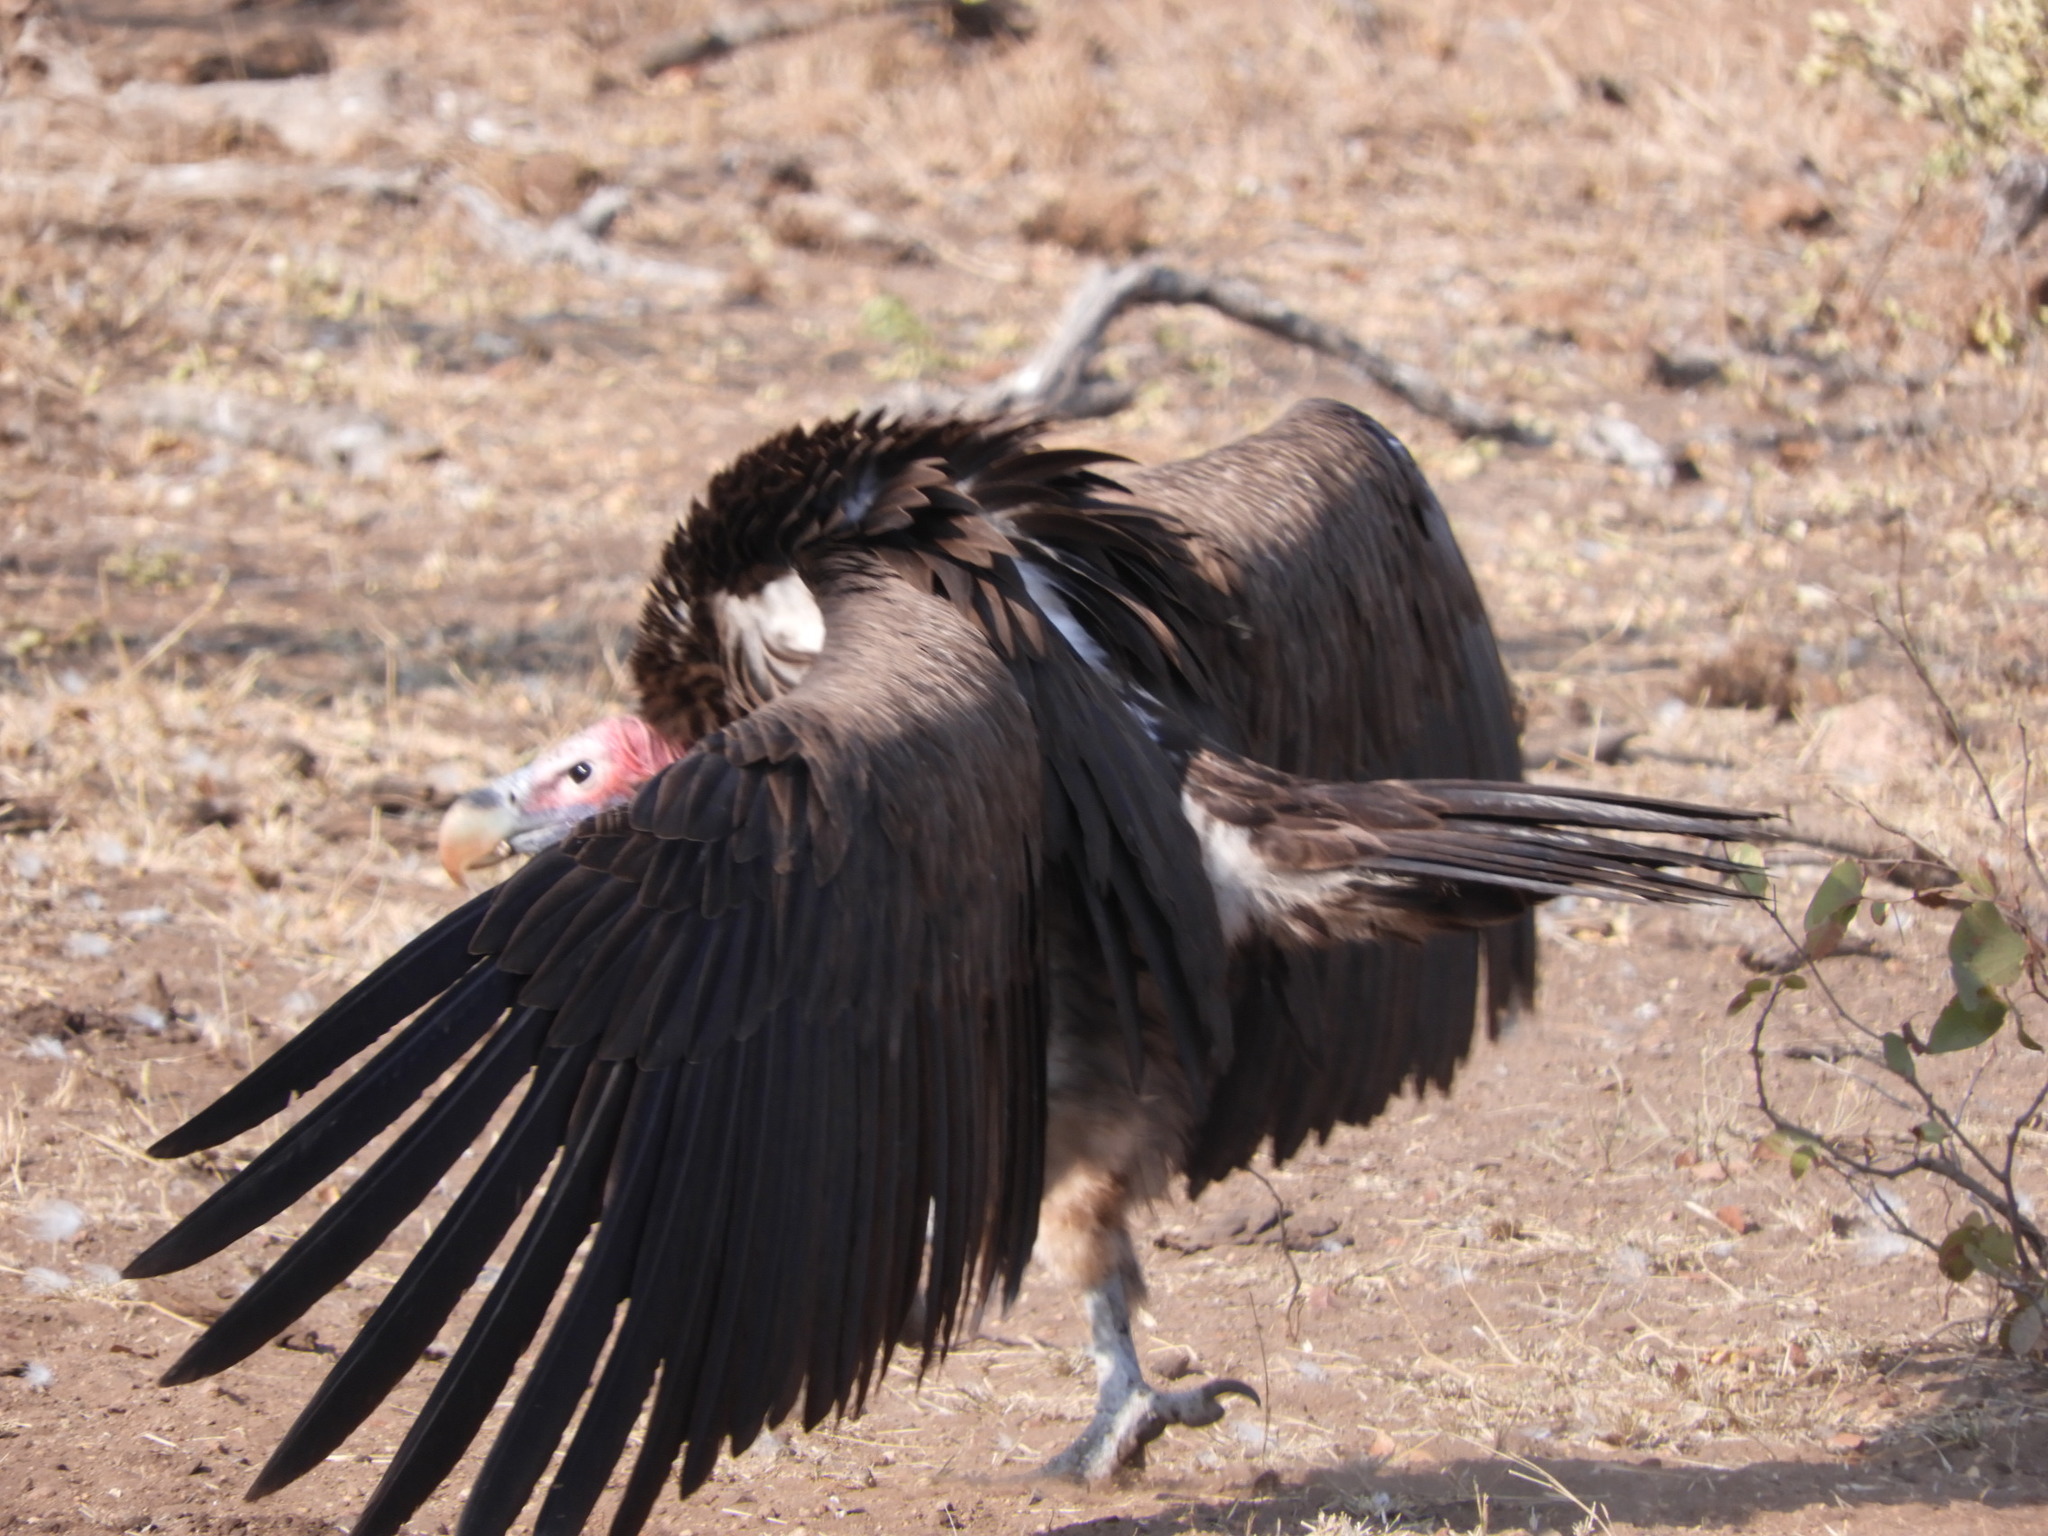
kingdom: Animalia
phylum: Chordata
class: Aves
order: Accipitriformes
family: Accipitridae
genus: Torgos
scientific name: Torgos tracheliotos
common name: Lappet-faced vulture
